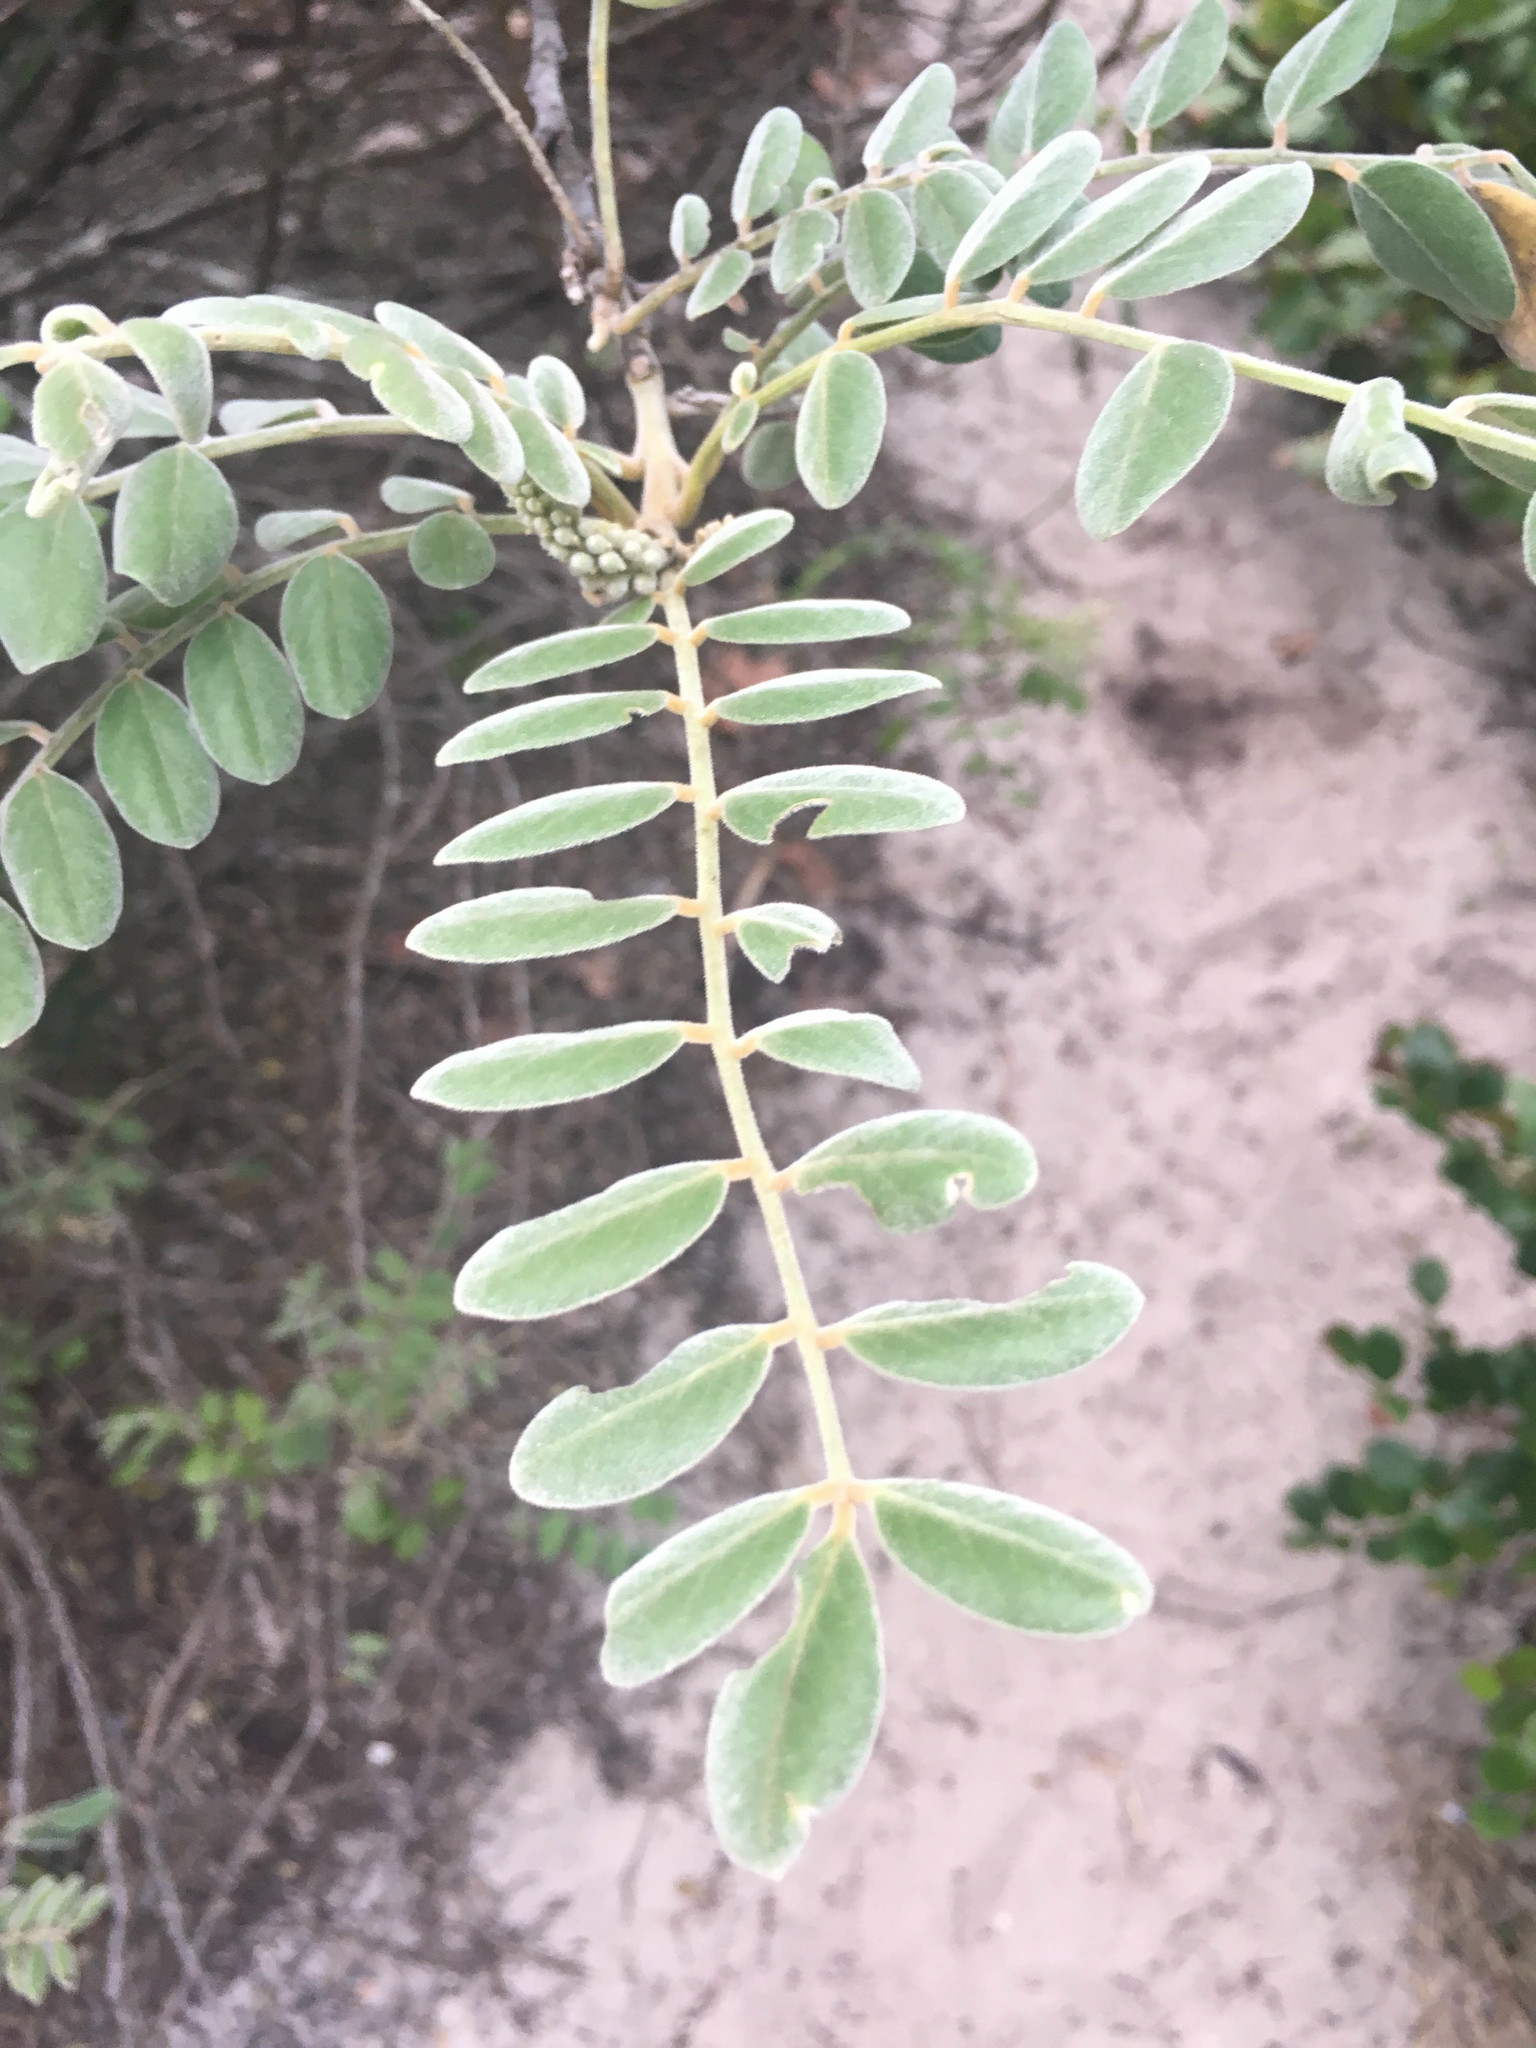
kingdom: Plantae
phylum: Tracheophyta
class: Magnoliopsida
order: Fabales
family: Fabaceae
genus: Sophora
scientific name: Sophora tomentosa
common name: Yellow necklacepod
